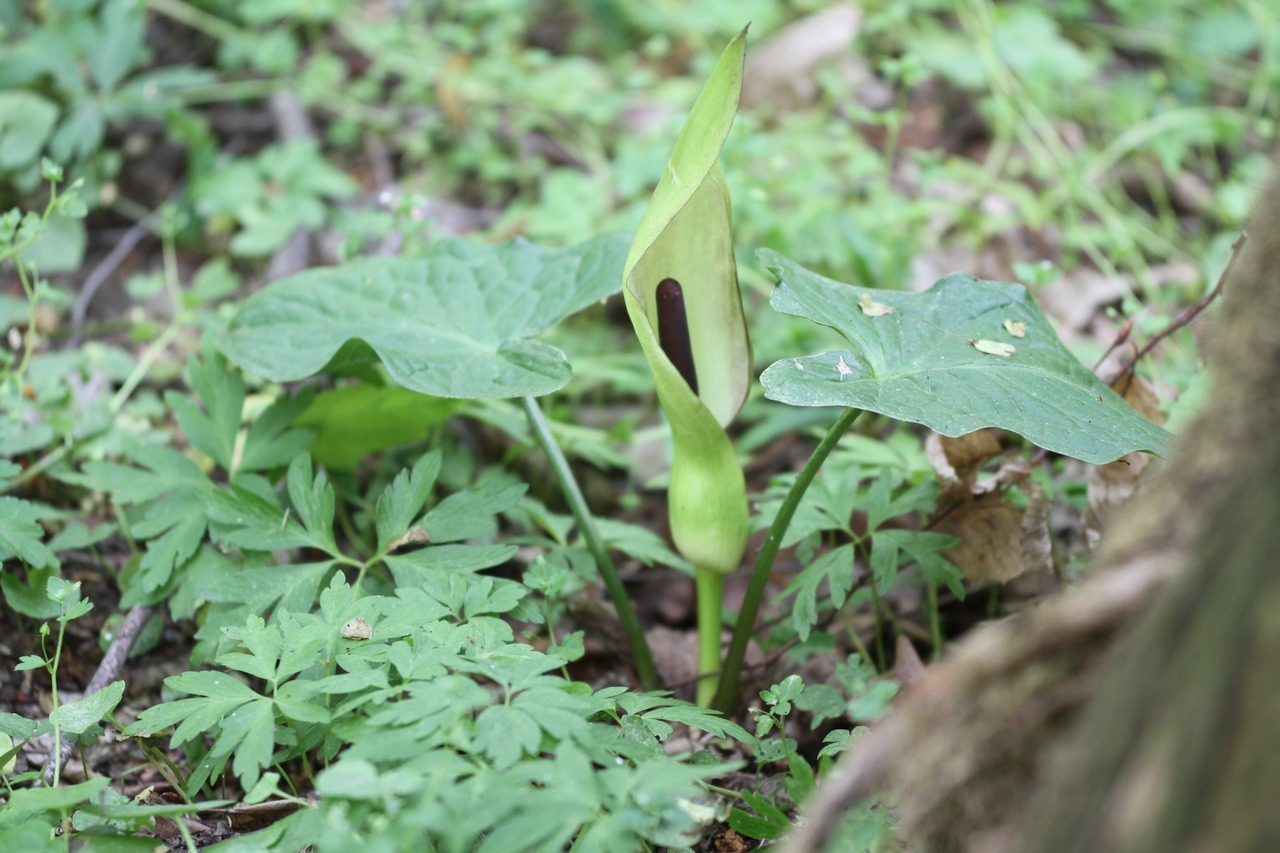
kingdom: Plantae
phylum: Tracheophyta
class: Liliopsida
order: Alismatales
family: Araceae
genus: Arum
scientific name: Arum maculatum
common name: Lords-and-ladies
